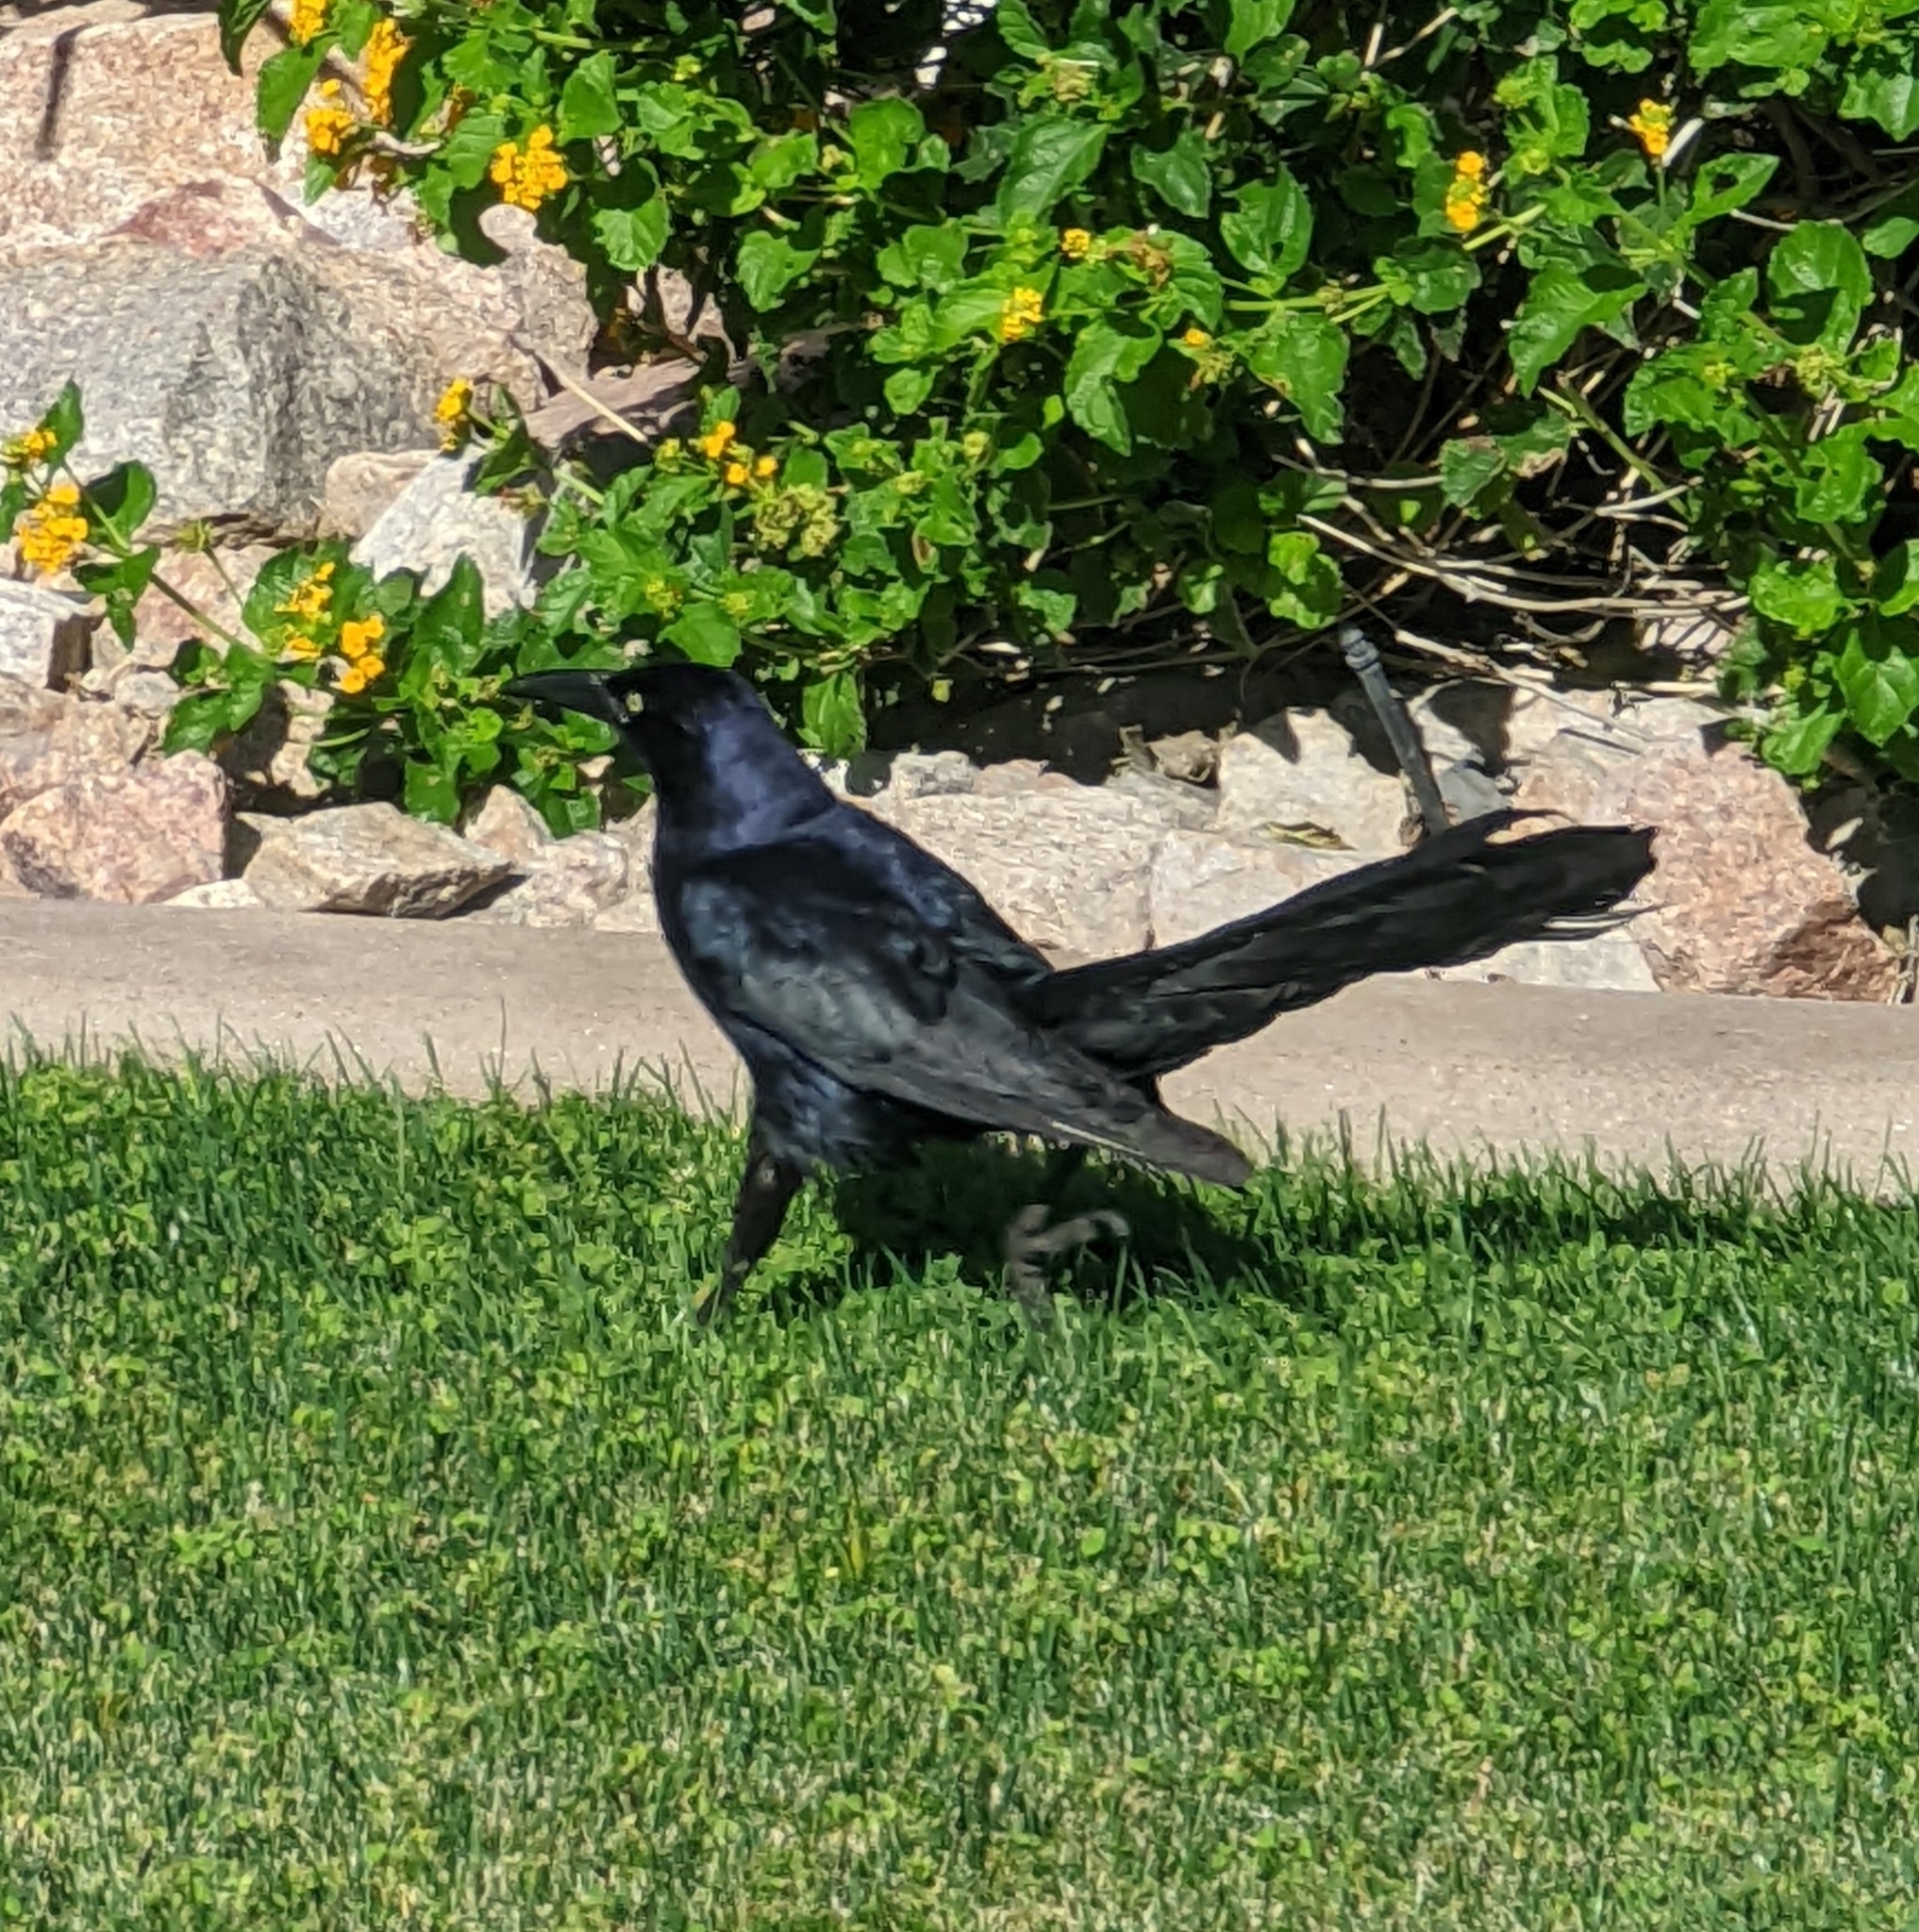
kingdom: Animalia
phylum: Chordata
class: Aves
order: Passeriformes
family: Icteridae
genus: Quiscalus
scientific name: Quiscalus mexicanus
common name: Great-tailed grackle
